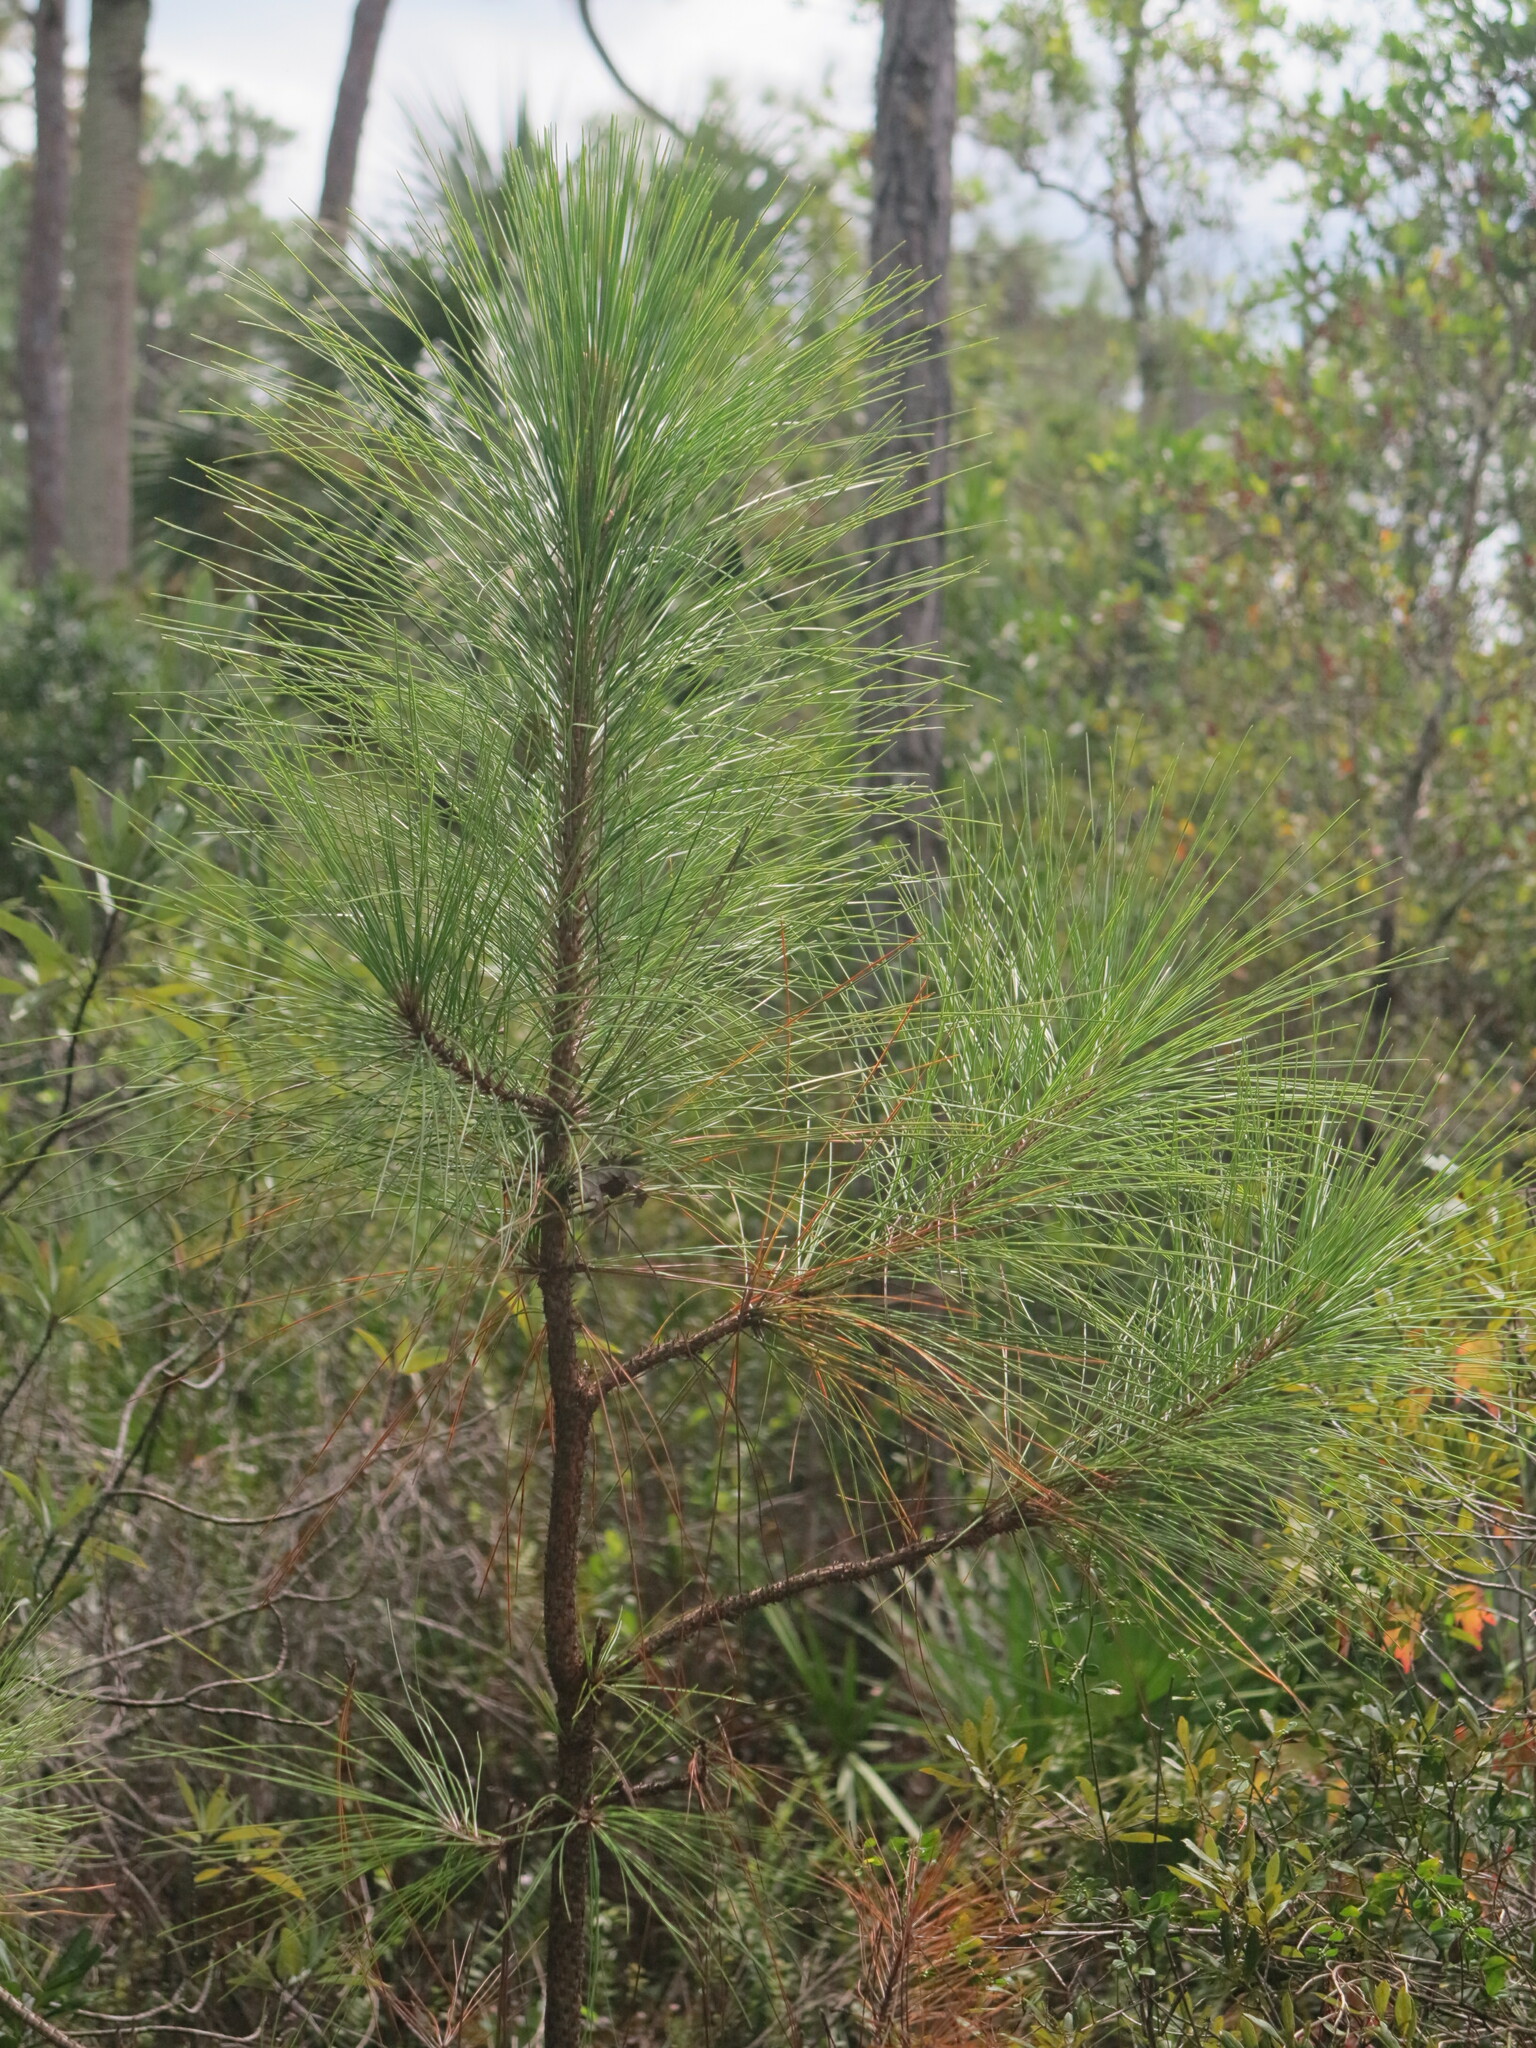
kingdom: Plantae
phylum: Tracheophyta
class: Pinopsida
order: Pinales
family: Pinaceae
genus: Pinus
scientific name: Pinus elliottii
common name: Slash pine
